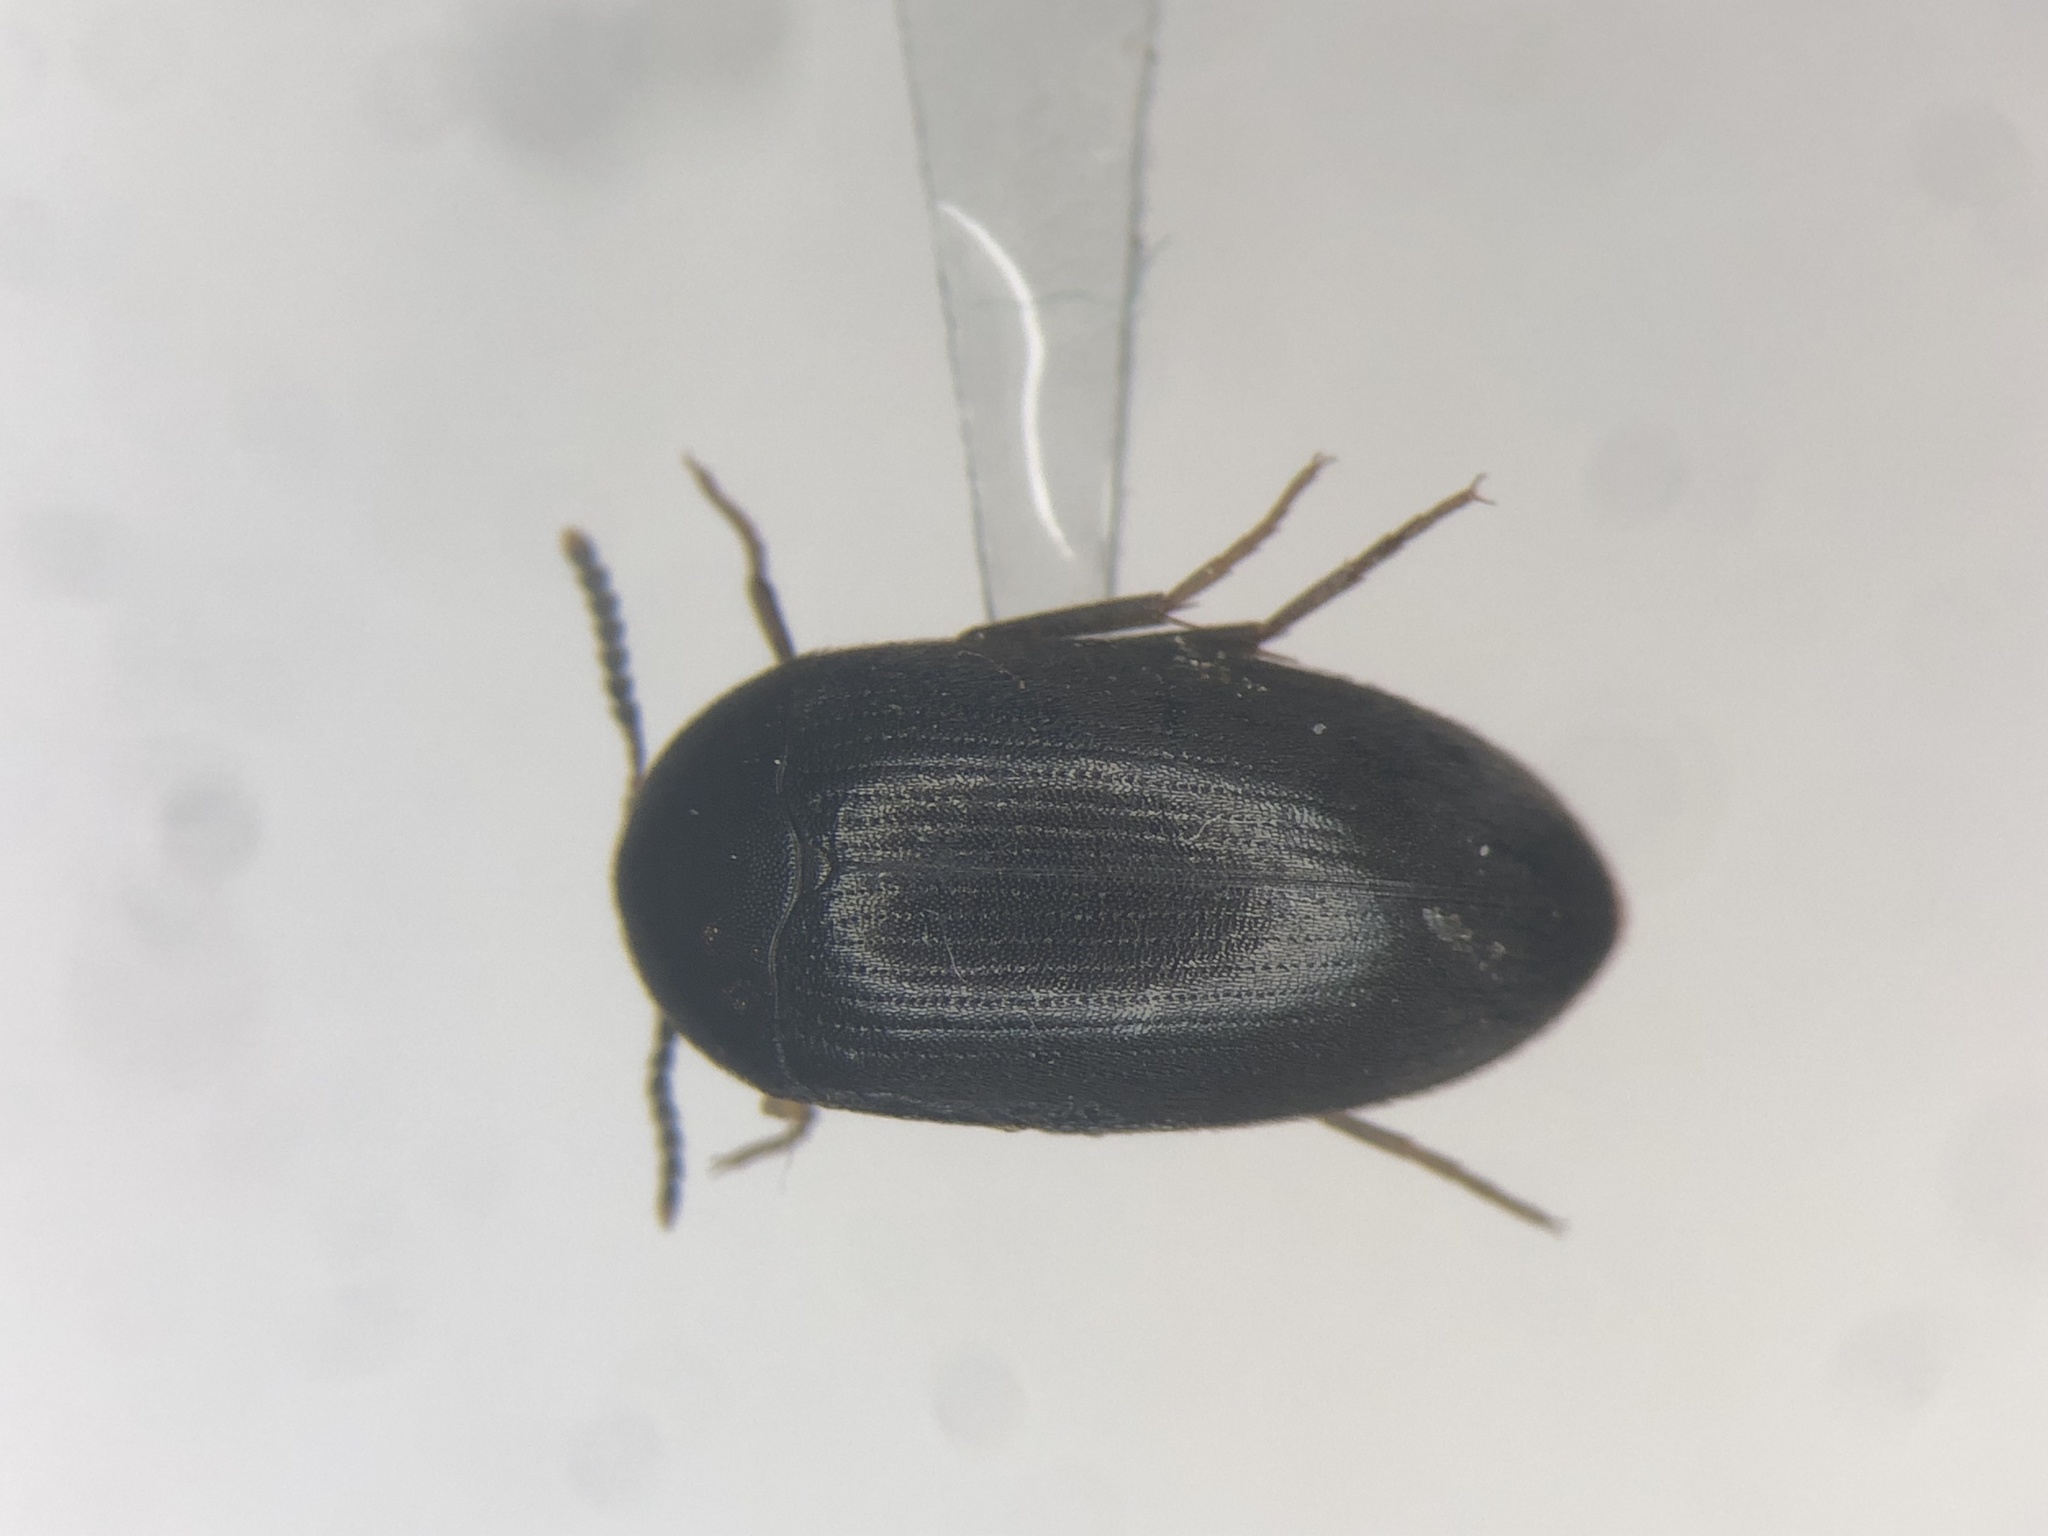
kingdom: Animalia
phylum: Arthropoda
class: Insecta
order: Coleoptera
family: Tetratomidae
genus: Synstrophus
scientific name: Synstrophus repandus
